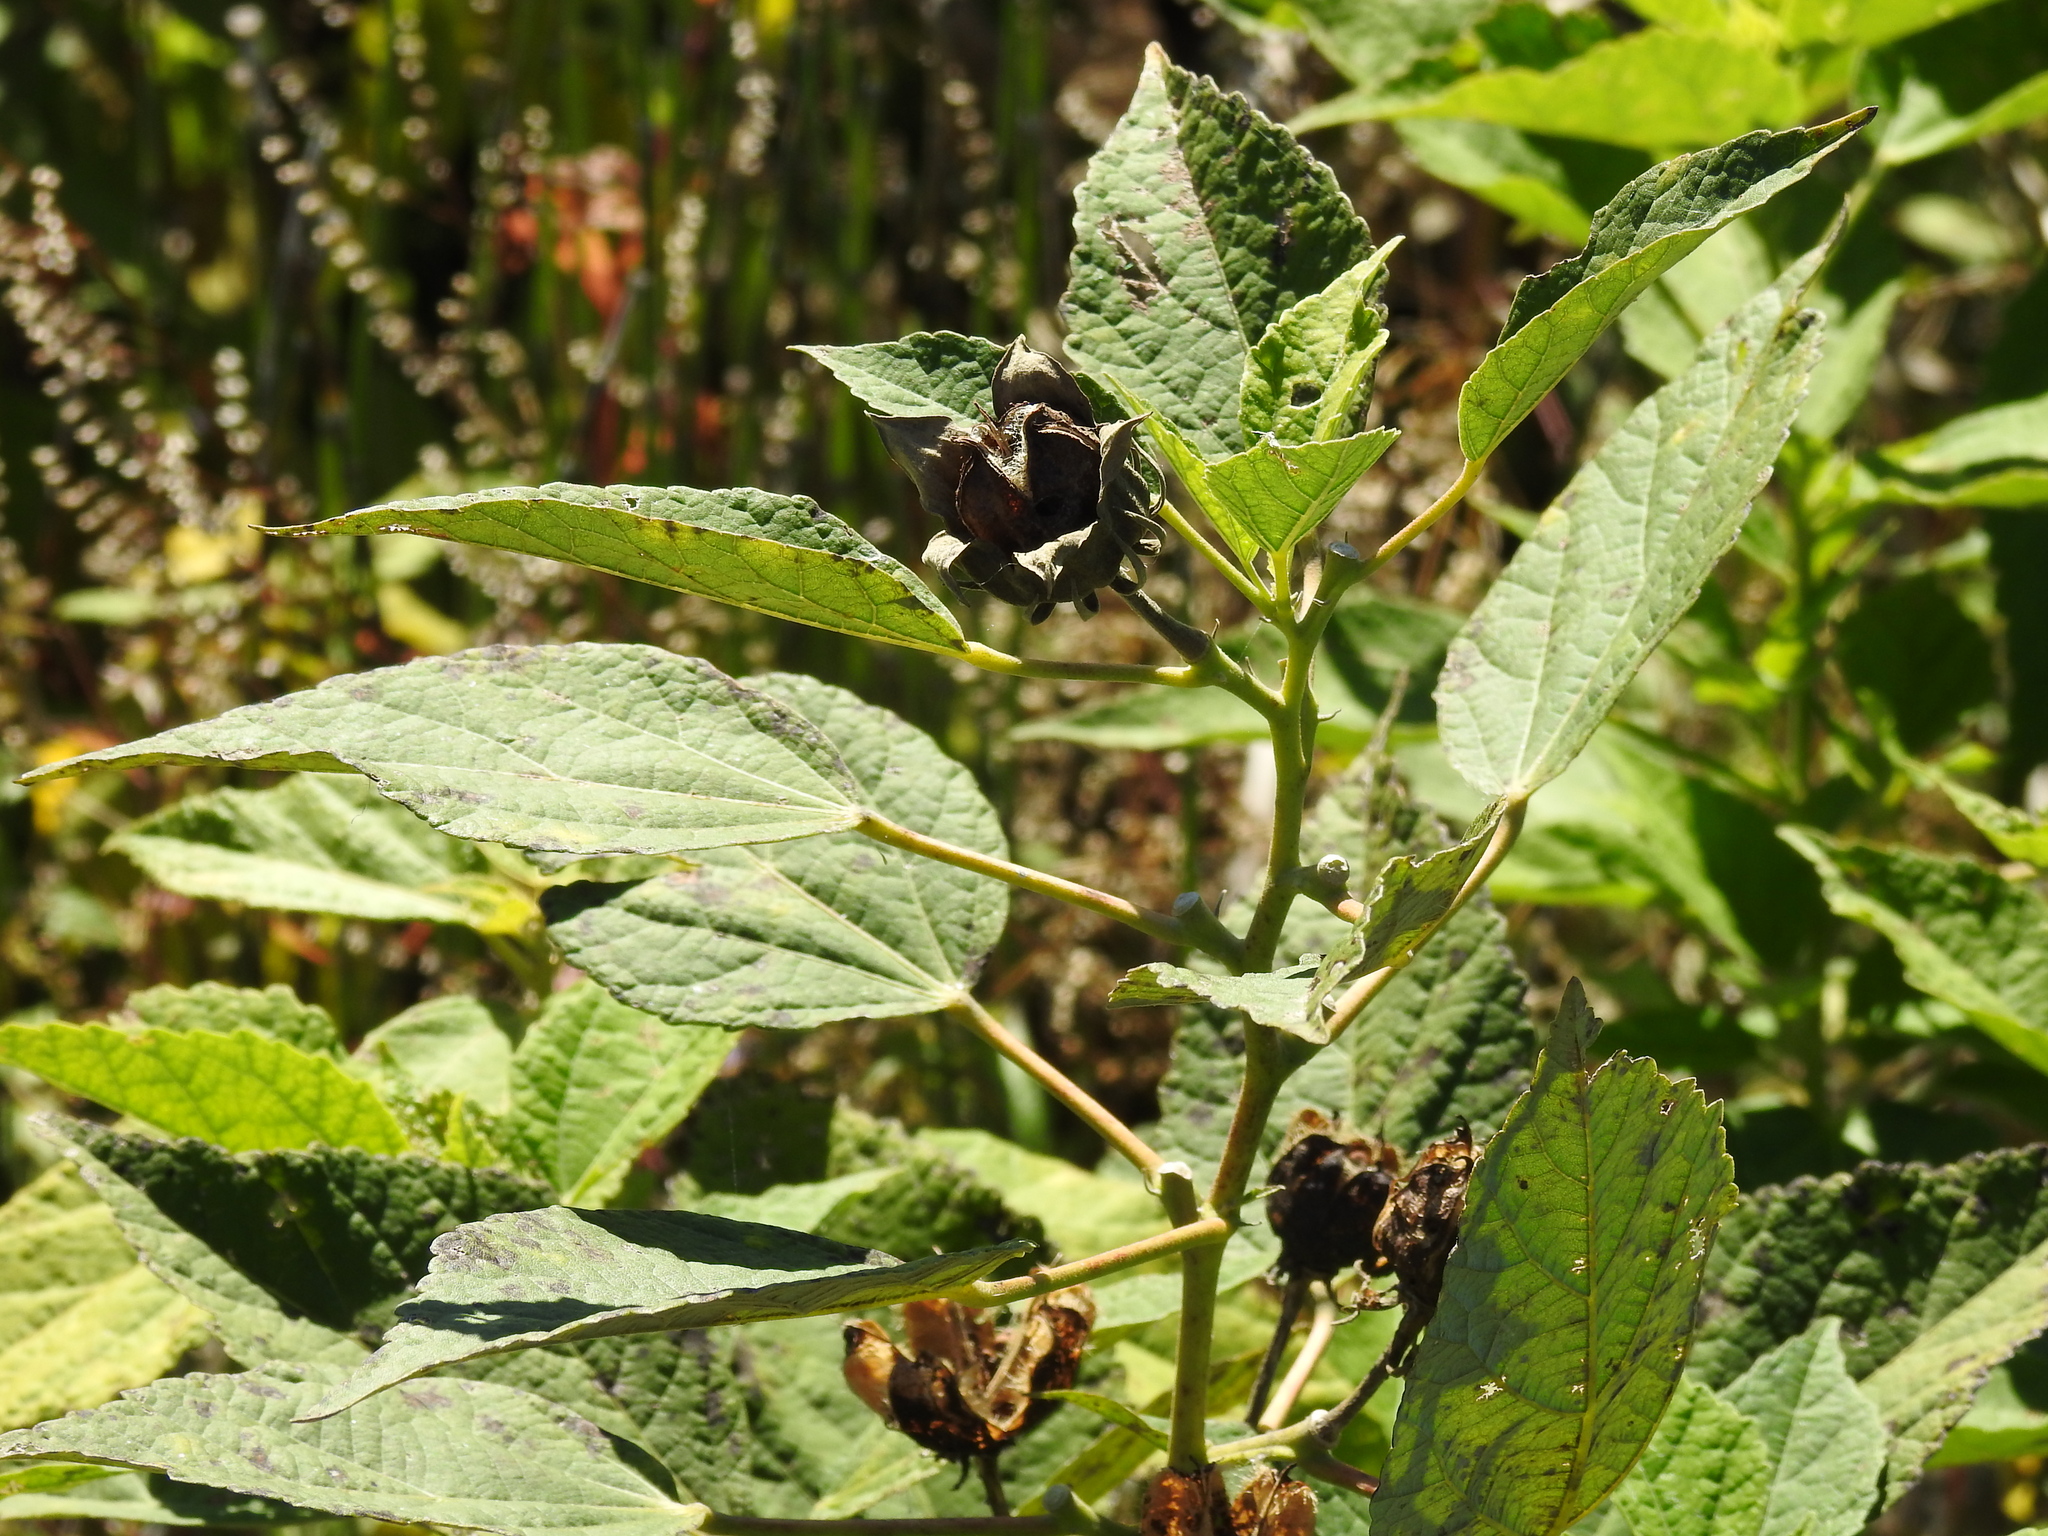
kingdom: Plantae
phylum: Tracheophyta
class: Magnoliopsida
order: Malvales
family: Malvaceae
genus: Hibiscus
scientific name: Hibiscus moscheutos
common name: Common rose-mallow
